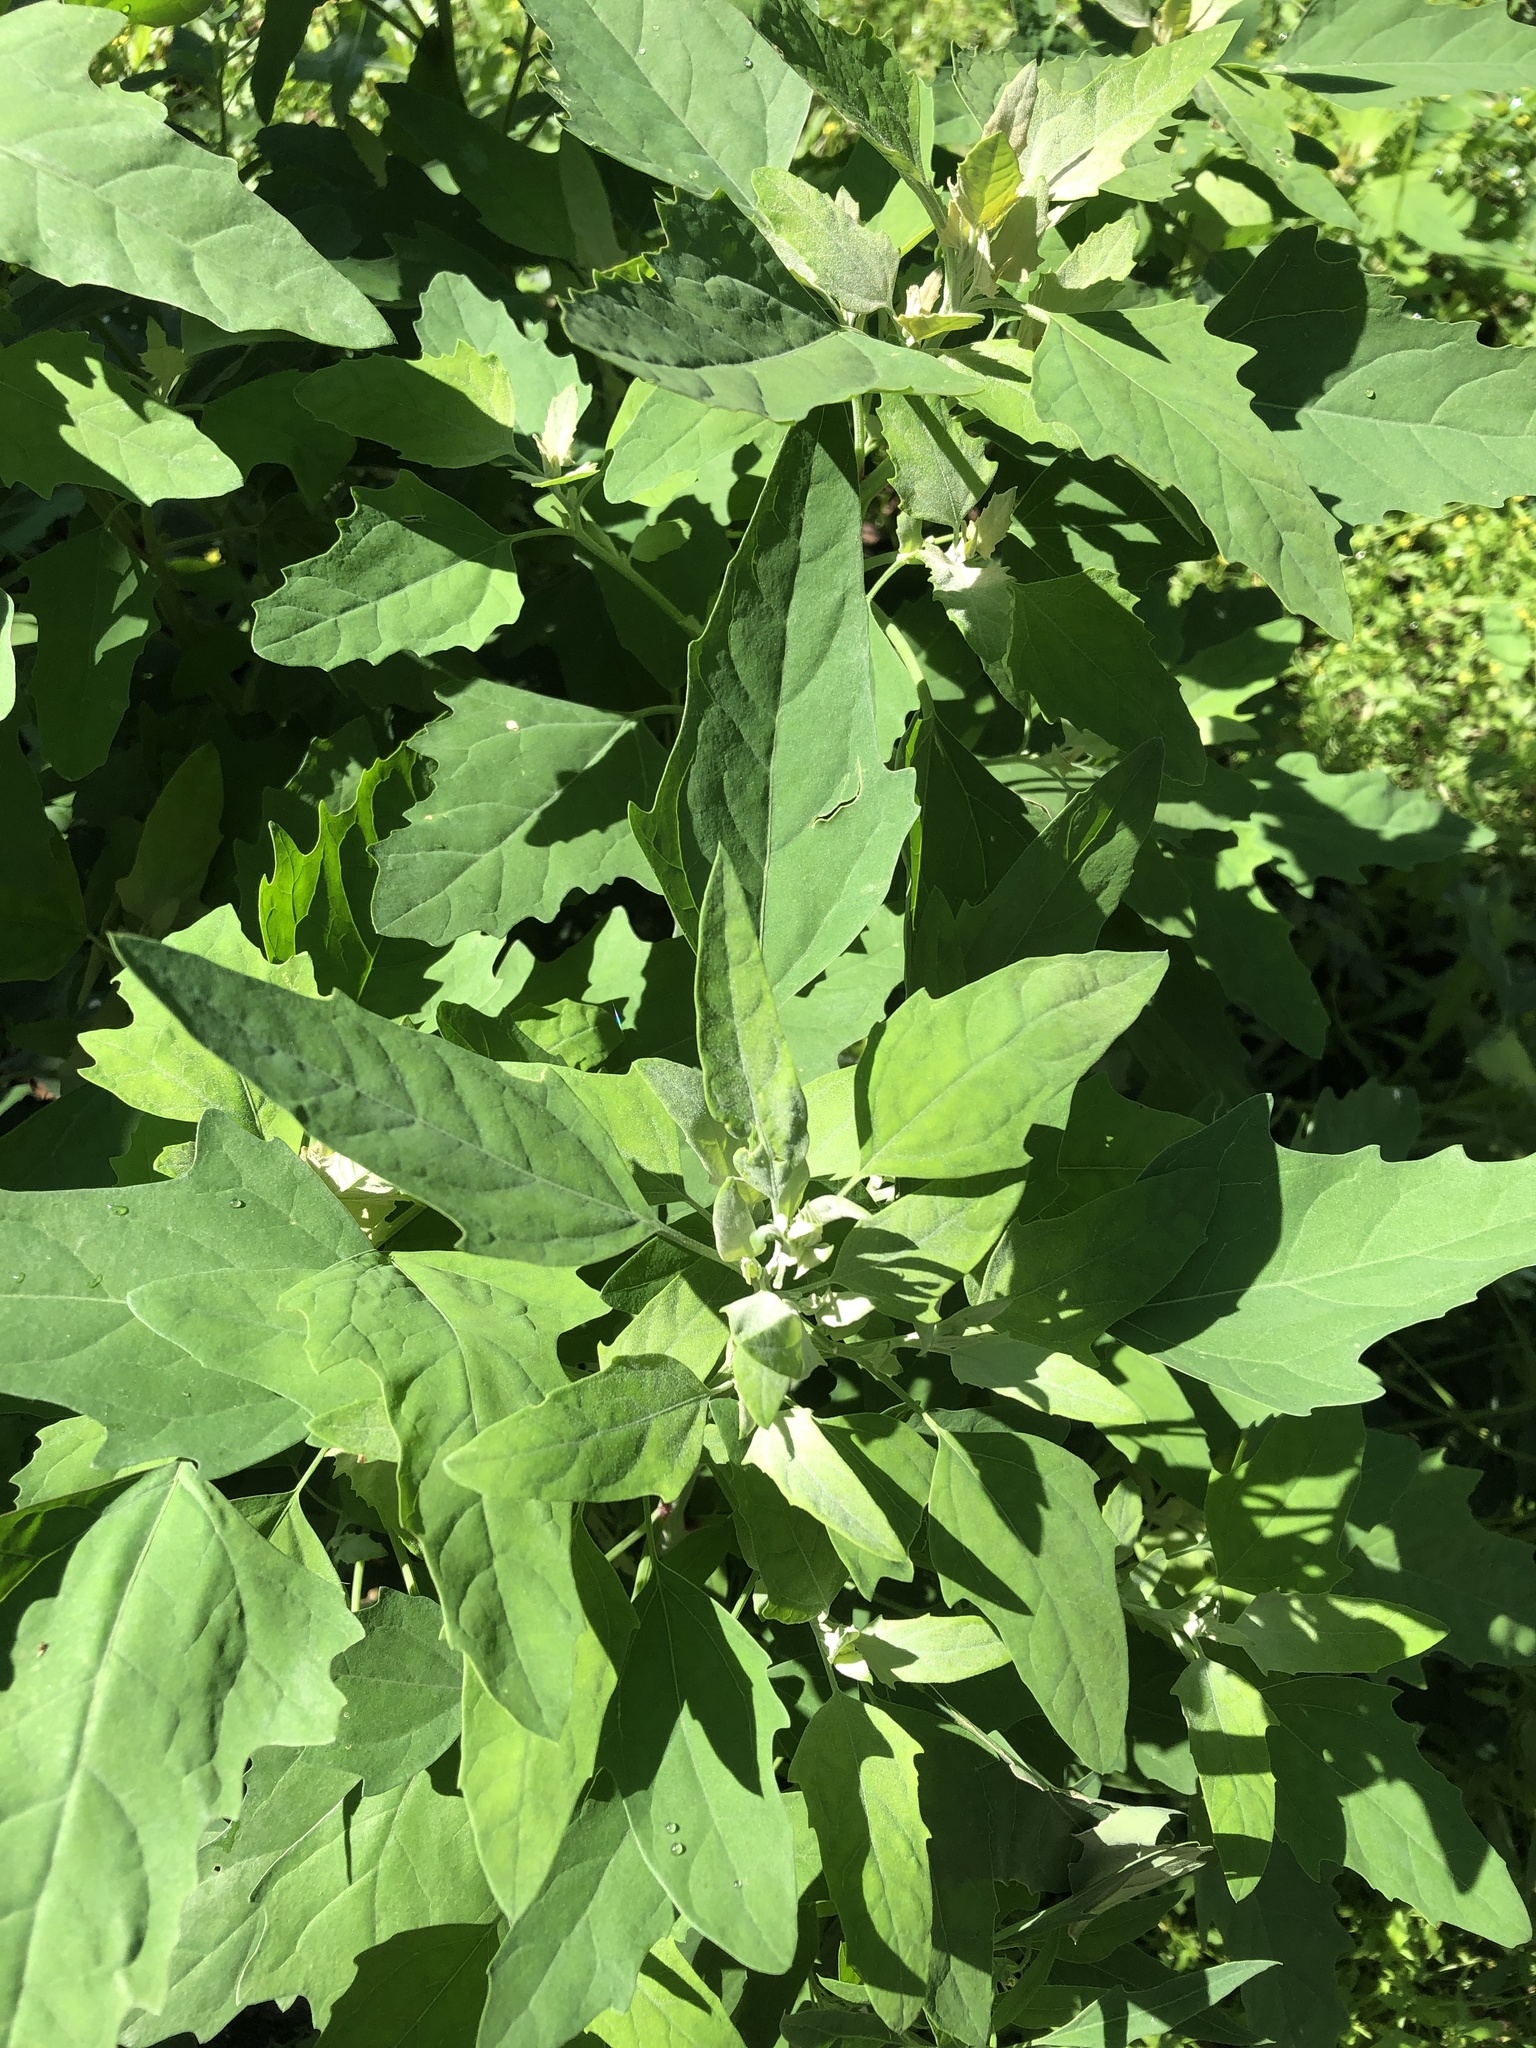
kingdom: Plantae
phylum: Tracheophyta
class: Magnoliopsida
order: Caryophyllales
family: Amaranthaceae
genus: Chenopodium
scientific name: Chenopodium album
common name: Fat-hen
